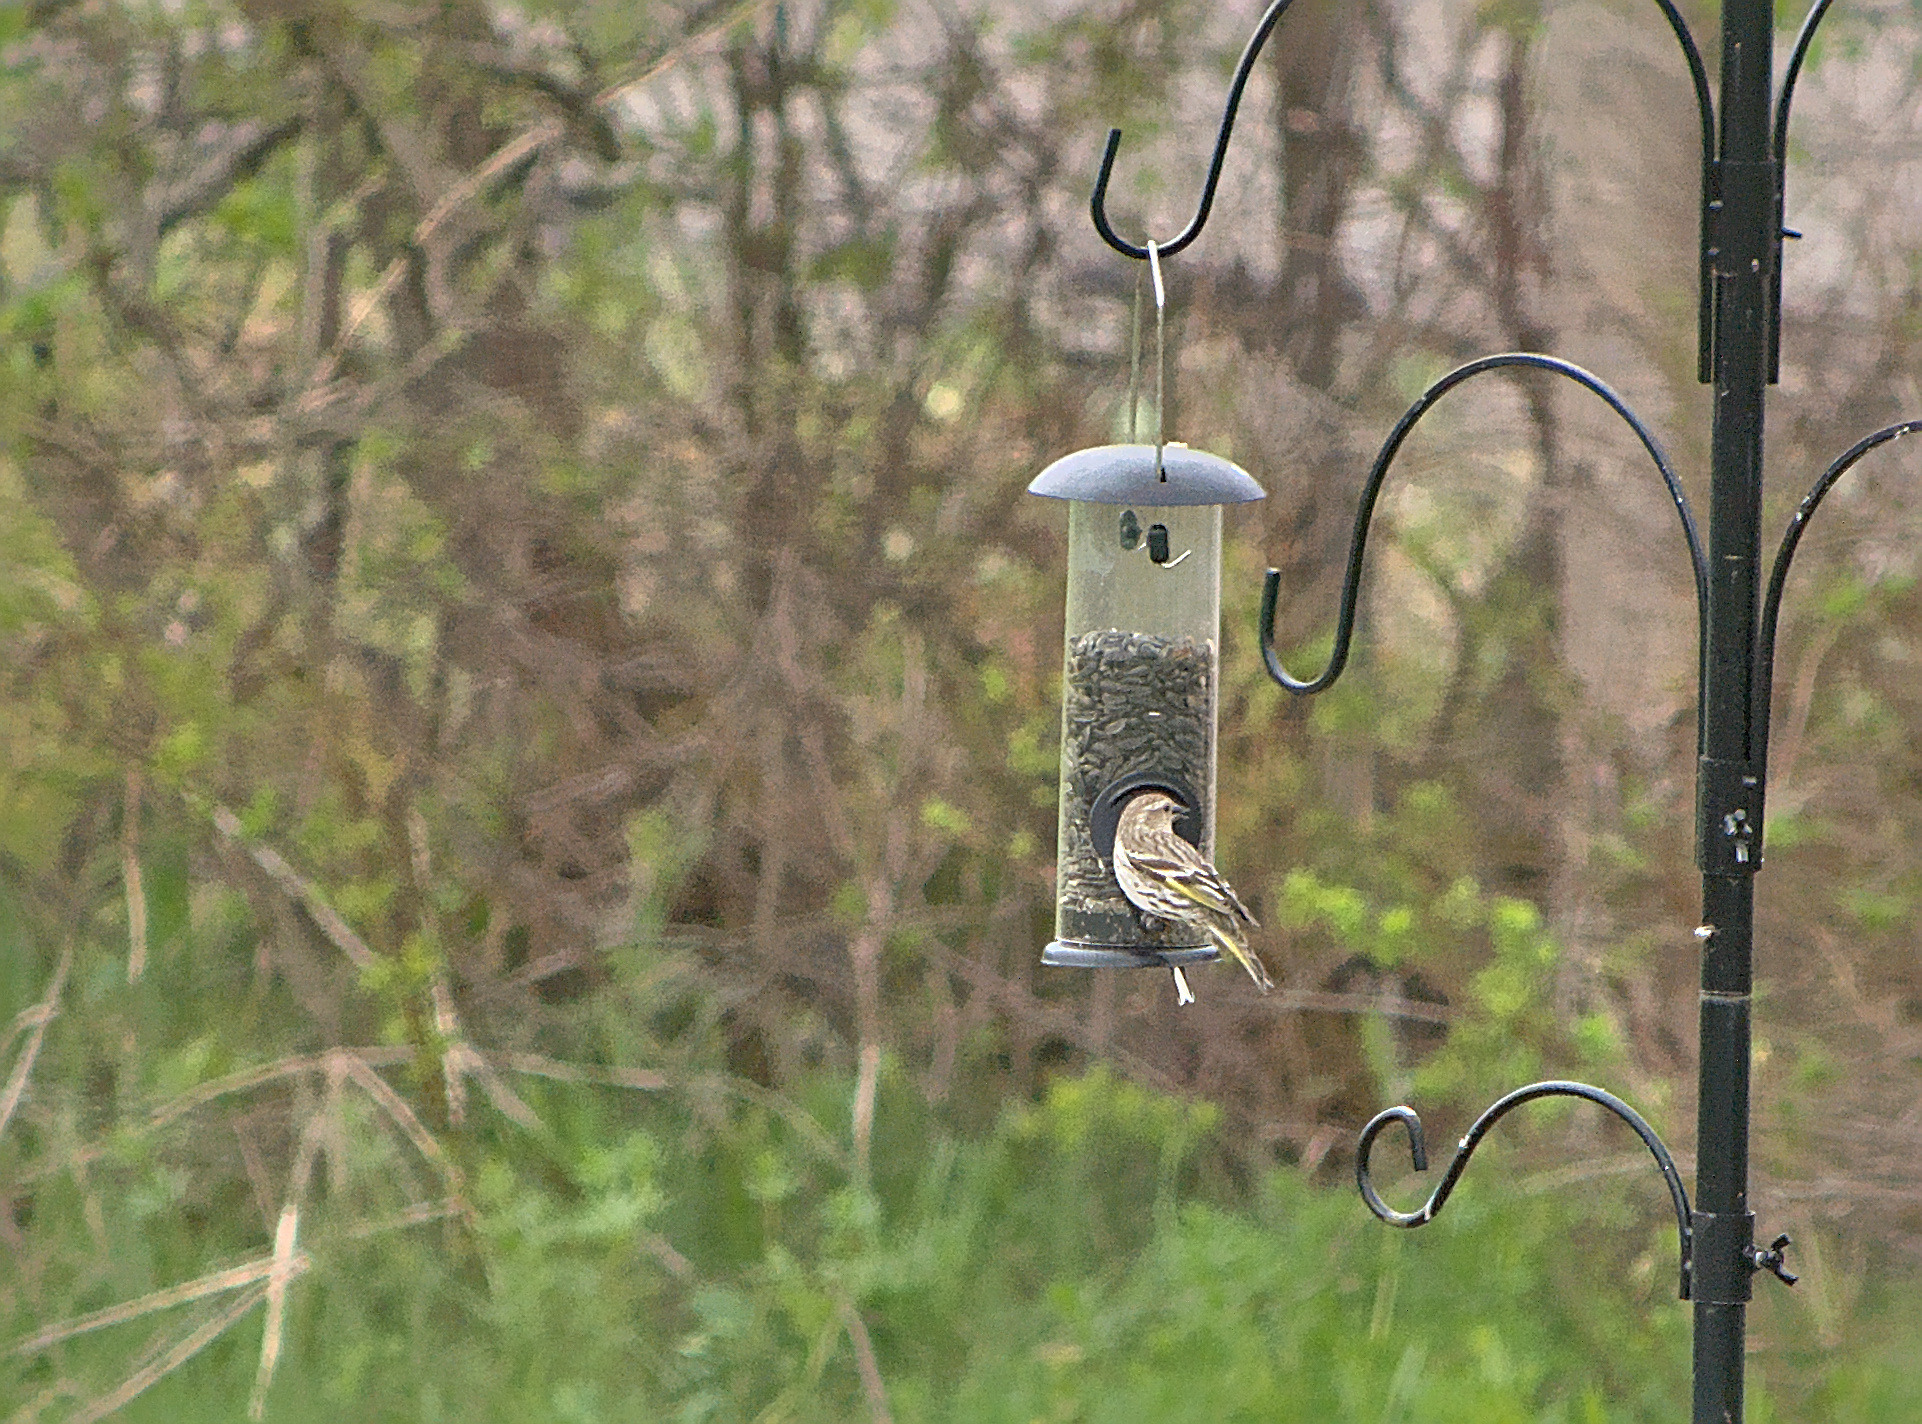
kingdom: Animalia
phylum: Chordata
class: Aves
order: Passeriformes
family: Fringillidae
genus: Spinus
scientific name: Spinus pinus
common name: Pine siskin
